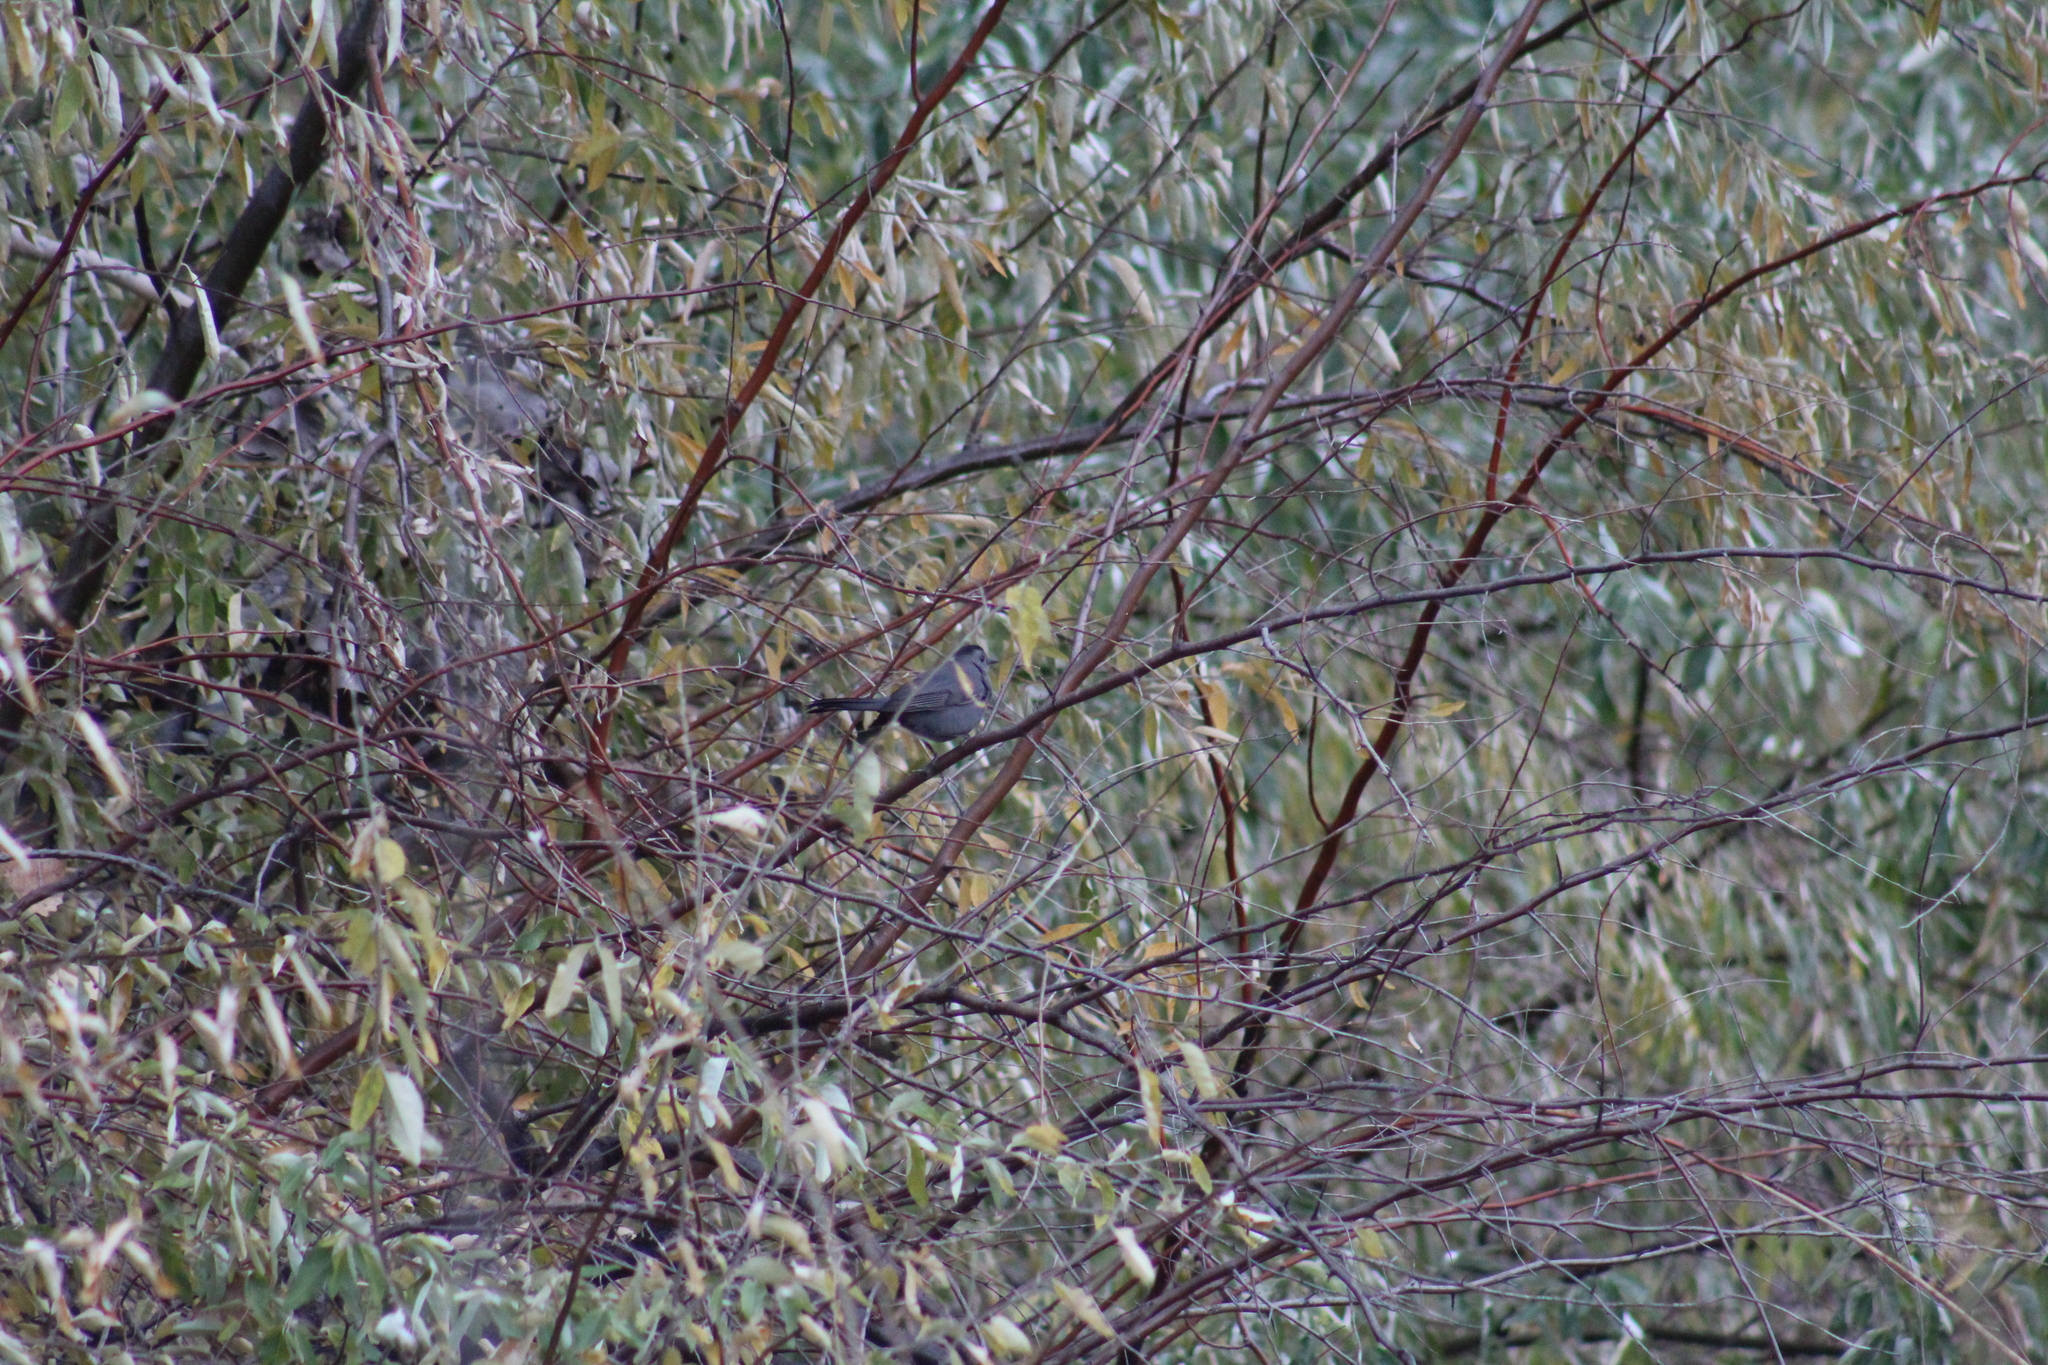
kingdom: Animalia
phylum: Chordata
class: Aves
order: Passeriformes
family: Mimidae
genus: Dumetella
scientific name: Dumetella carolinensis
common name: Gray catbird
